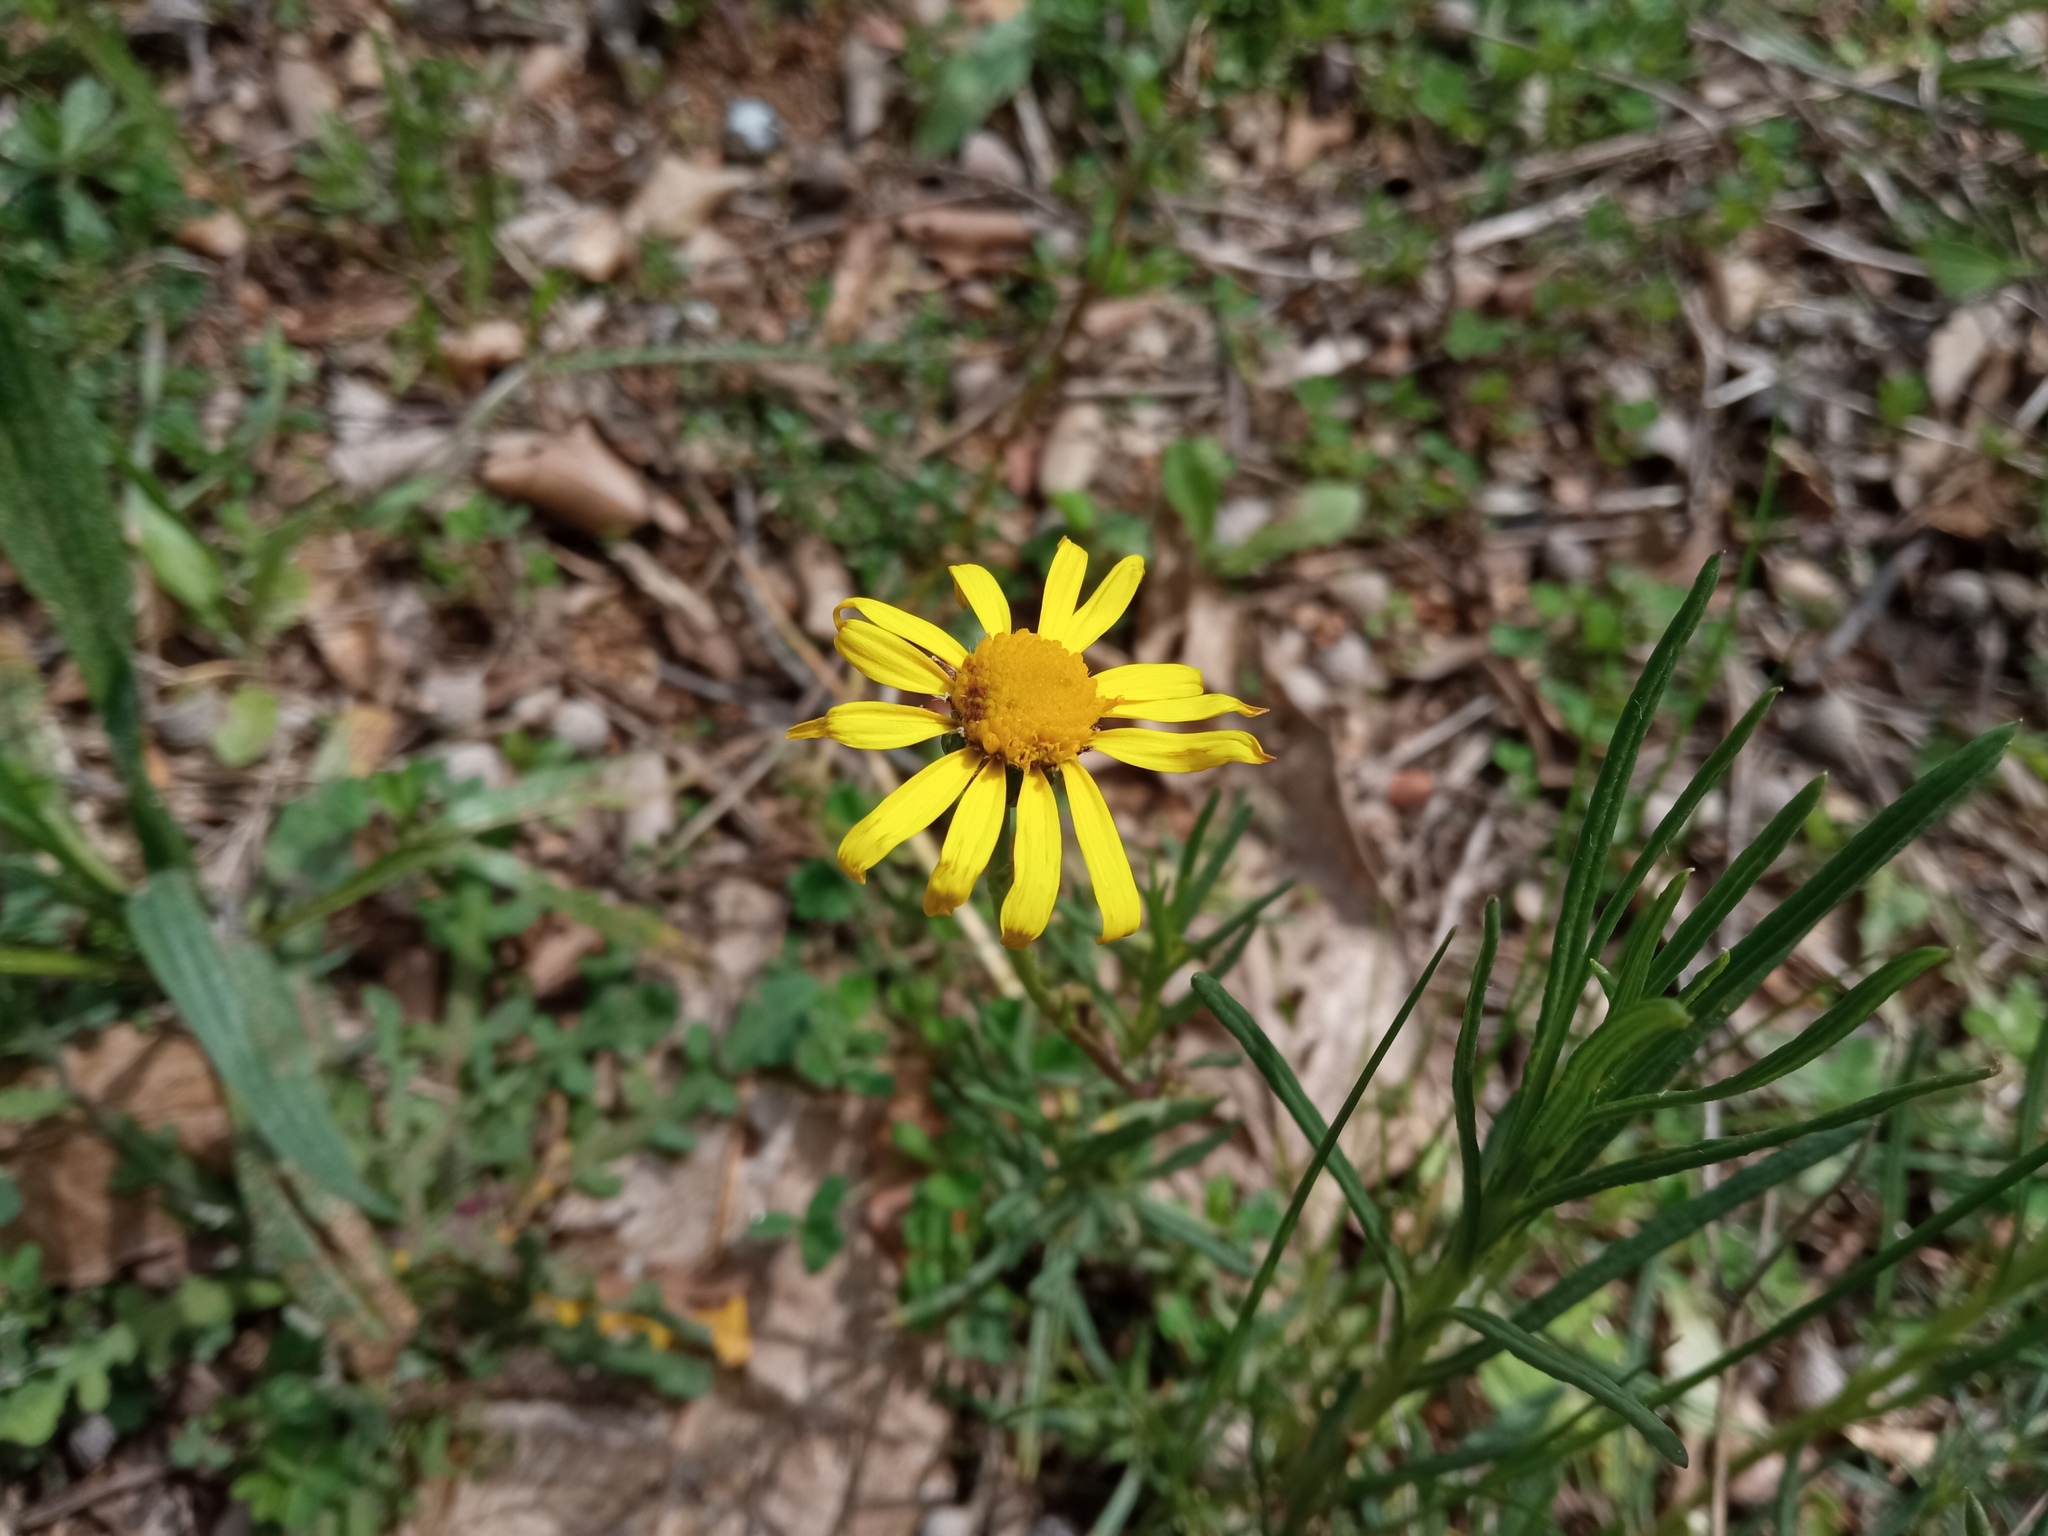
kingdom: Plantae
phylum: Tracheophyta
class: Magnoliopsida
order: Asterales
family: Asteraceae
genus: Senecio
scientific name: Senecio inaequidens
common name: Narrow-leaved ragwort
